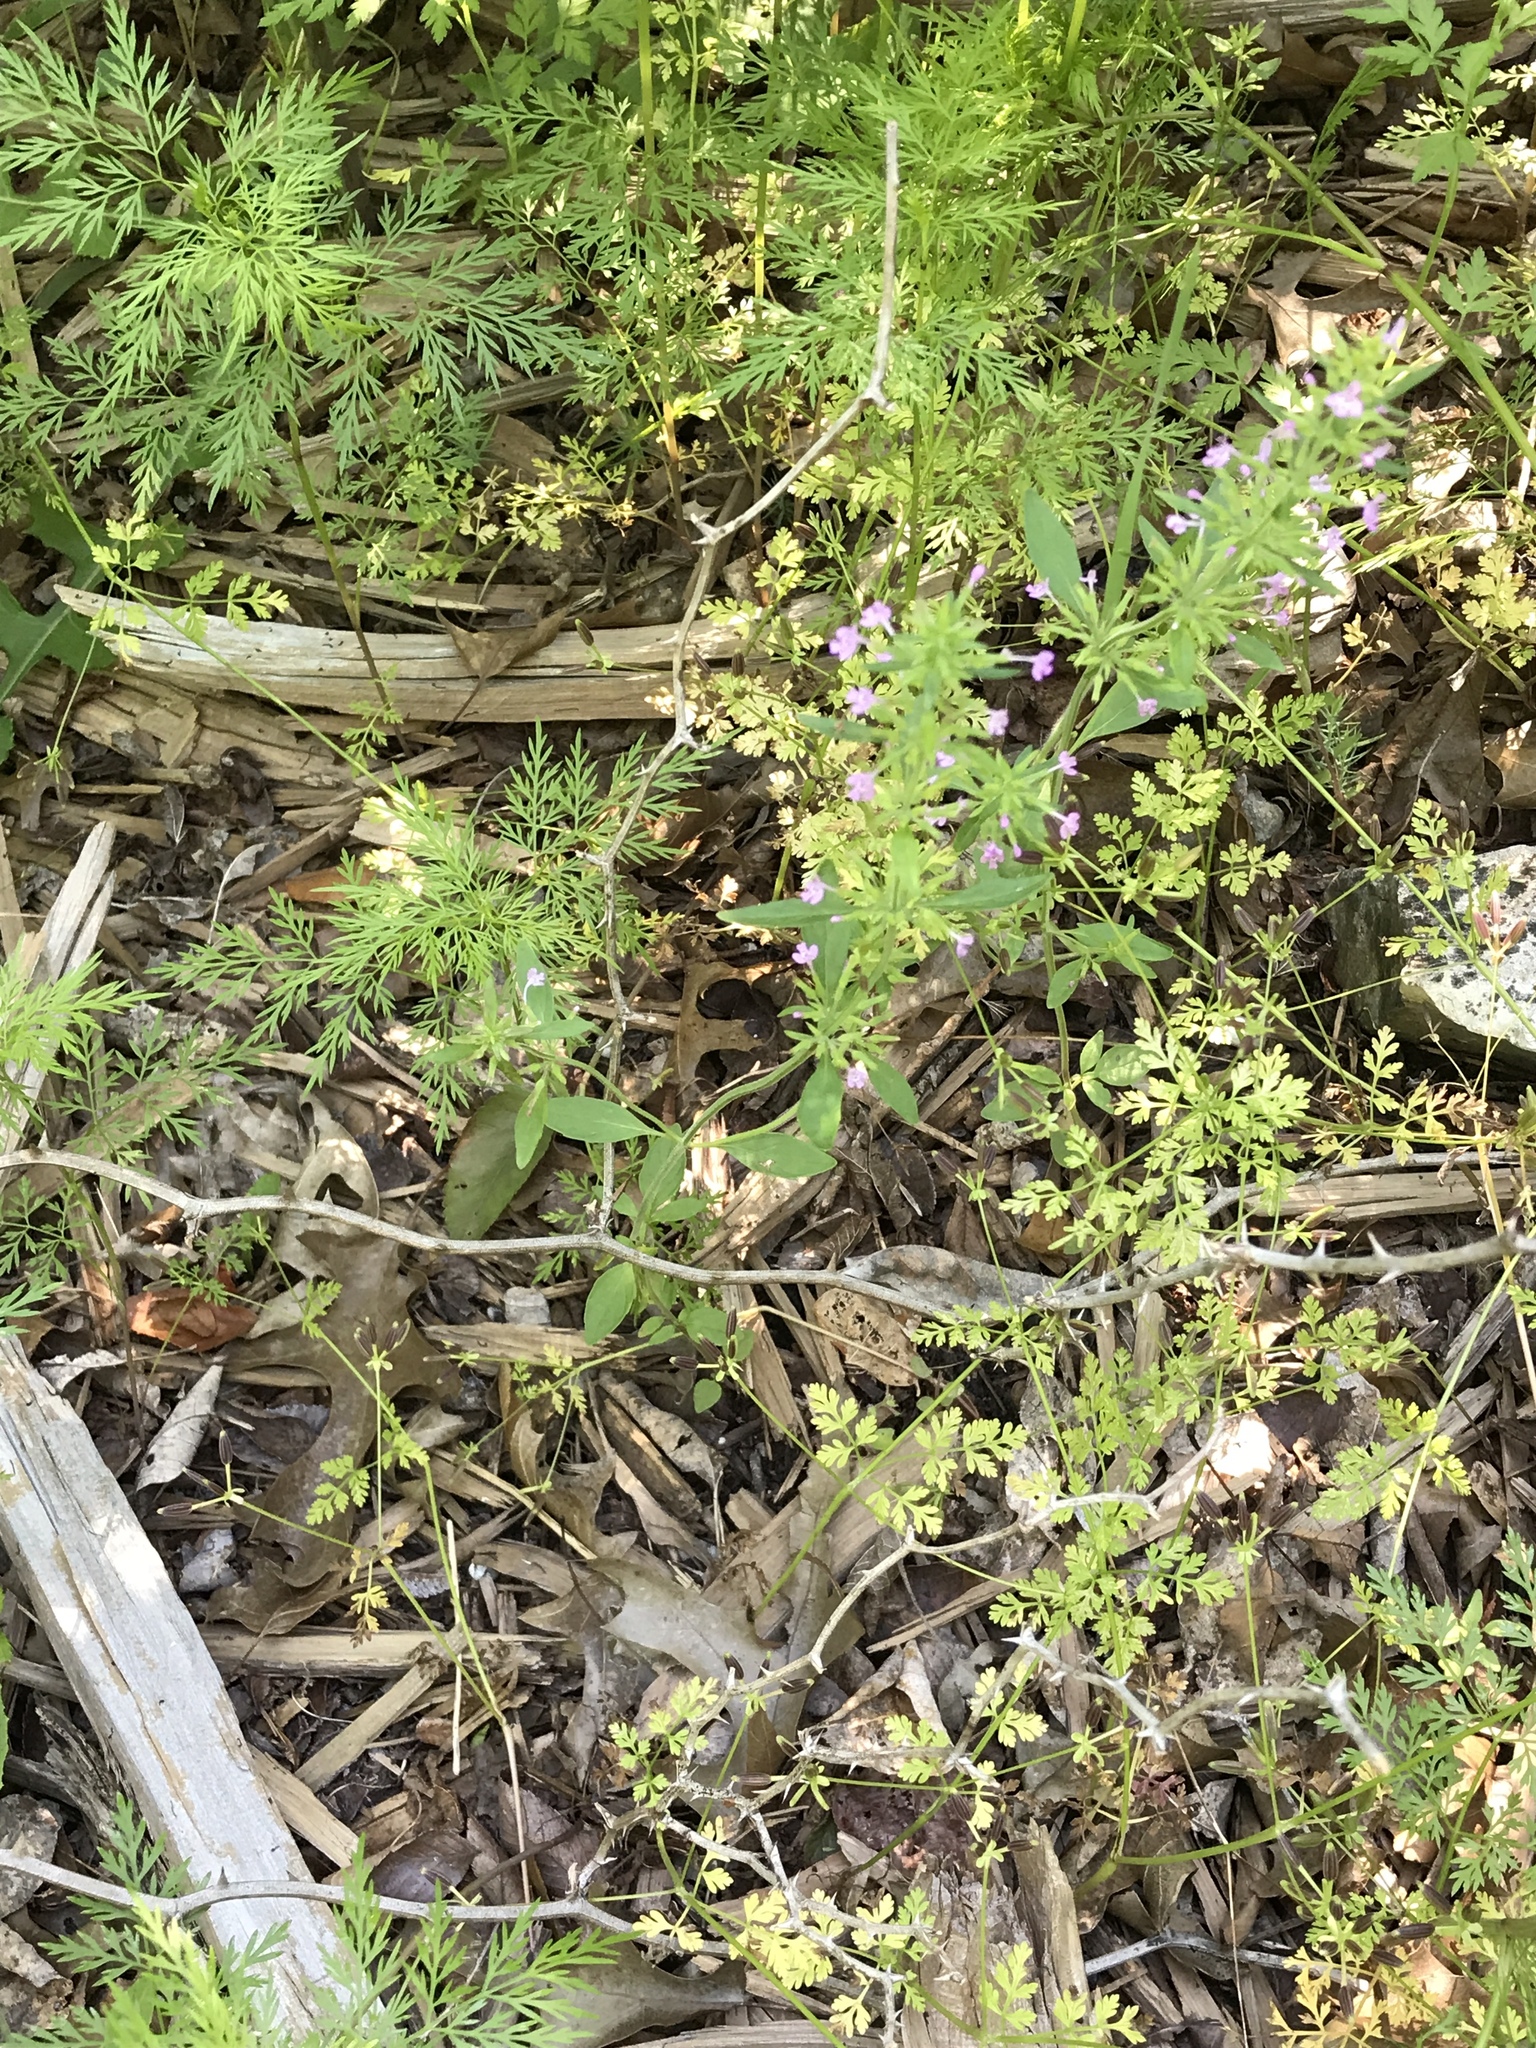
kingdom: Plantae
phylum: Tracheophyta
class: Magnoliopsida
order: Lamiales
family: Lamiaceae
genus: Hedeoma
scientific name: Hedeoma acinoides
